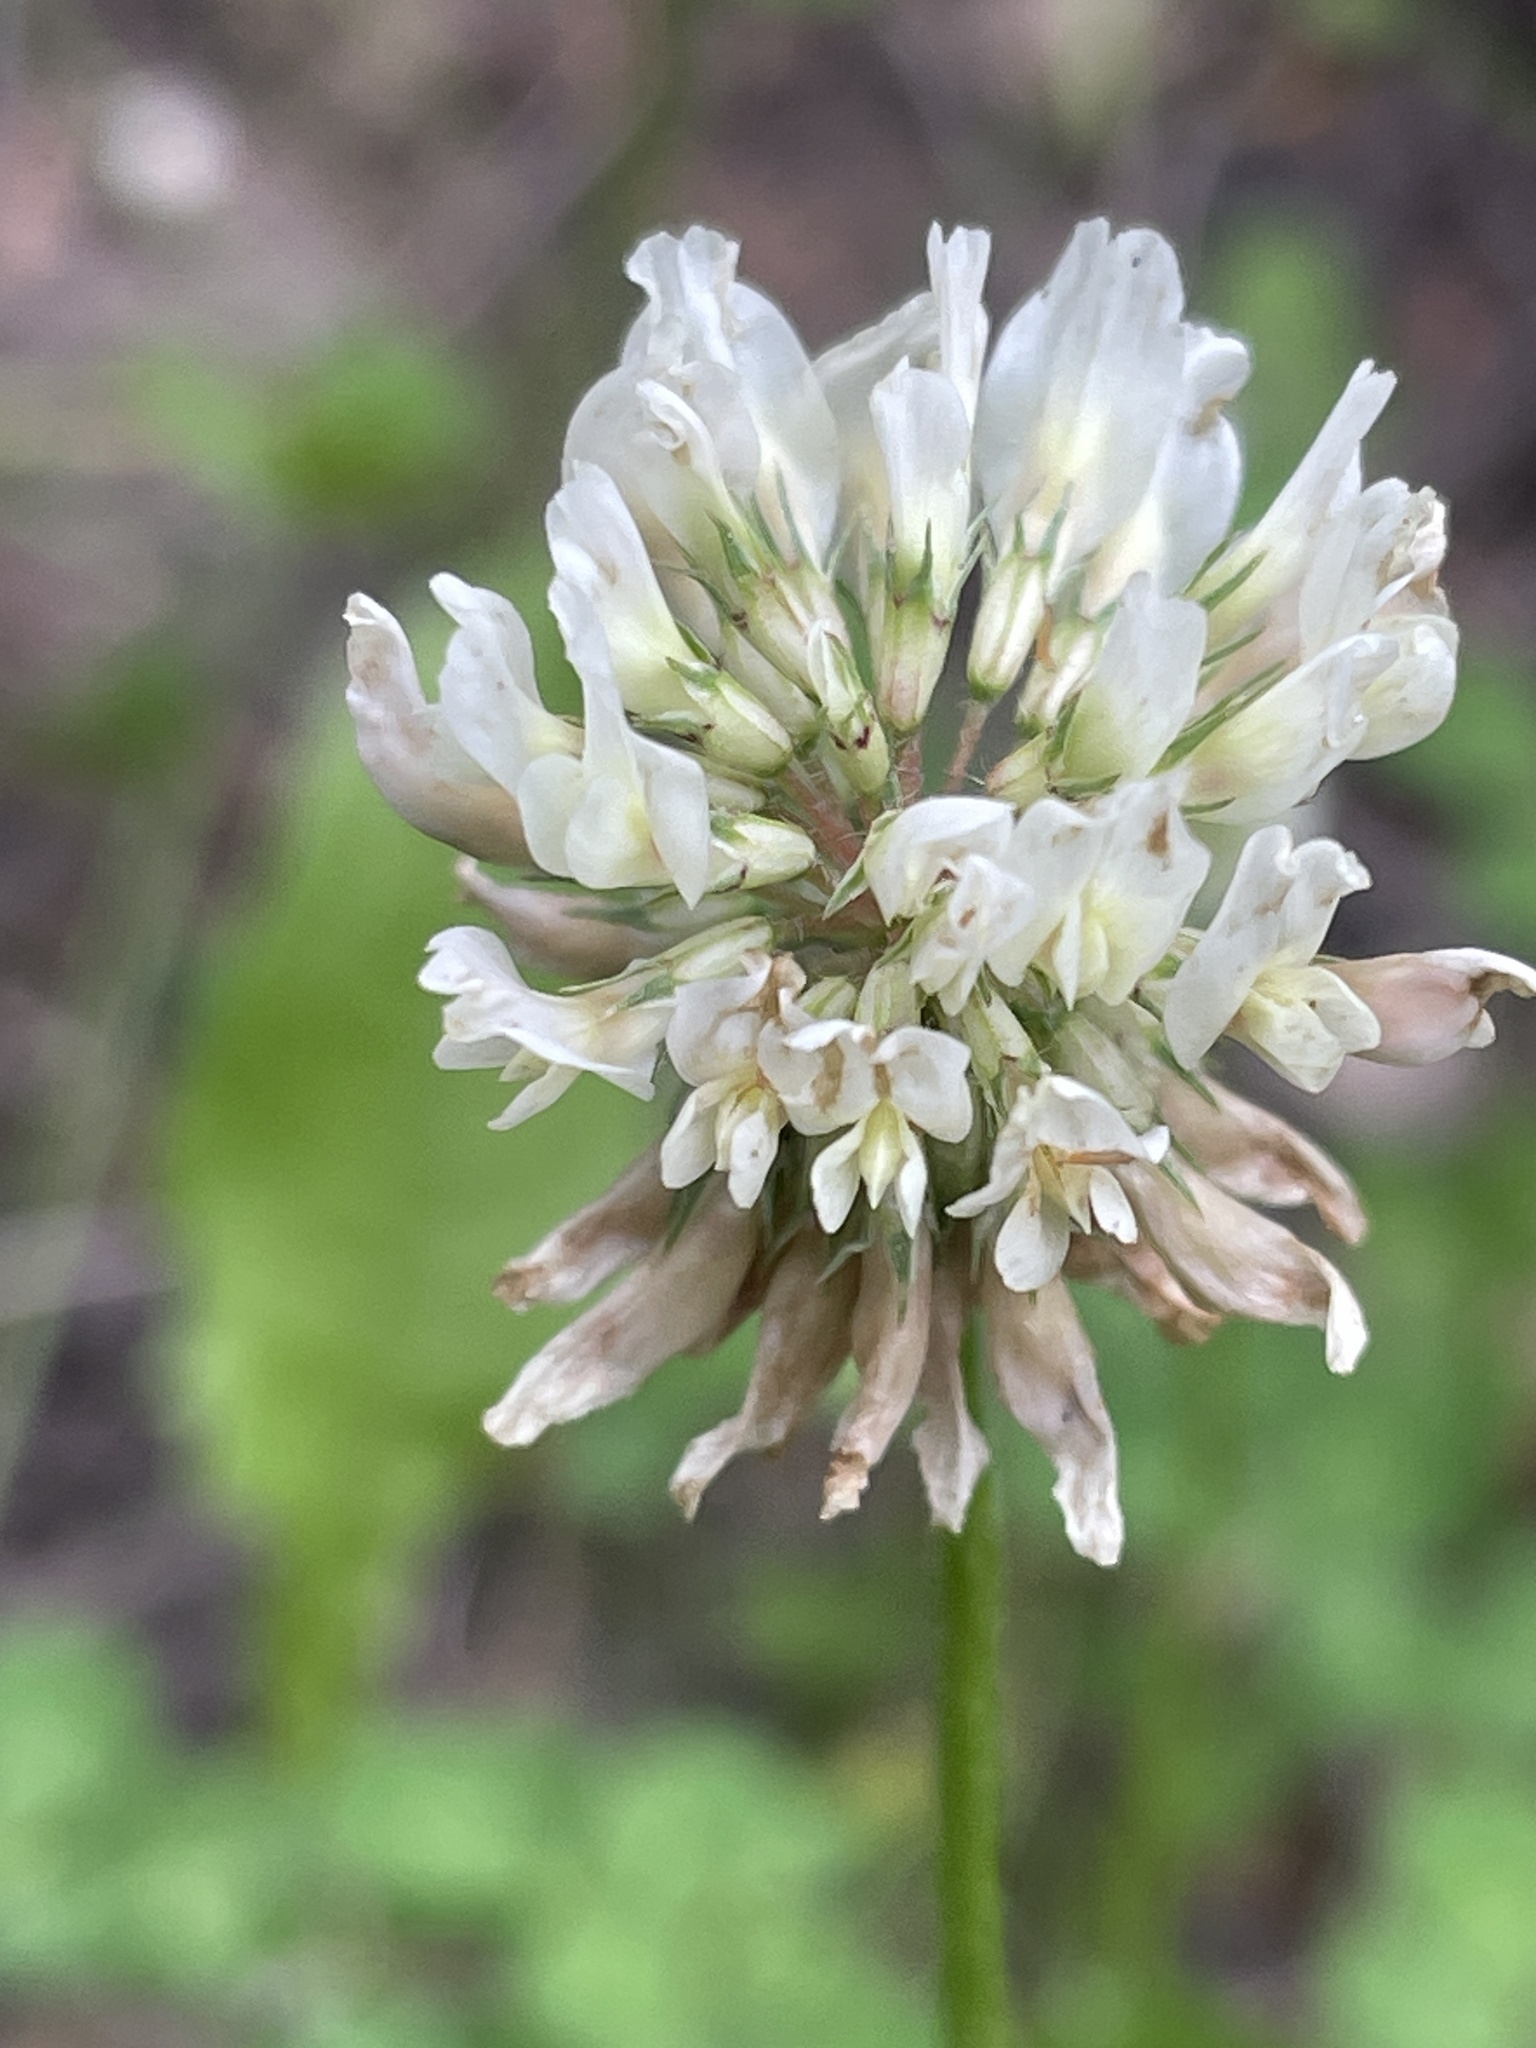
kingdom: Plantae
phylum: Tracheophyta
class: Magnoliopsida
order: Fabales
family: Fabaceae
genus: Trifolium
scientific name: Trifolium repens
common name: White clover
